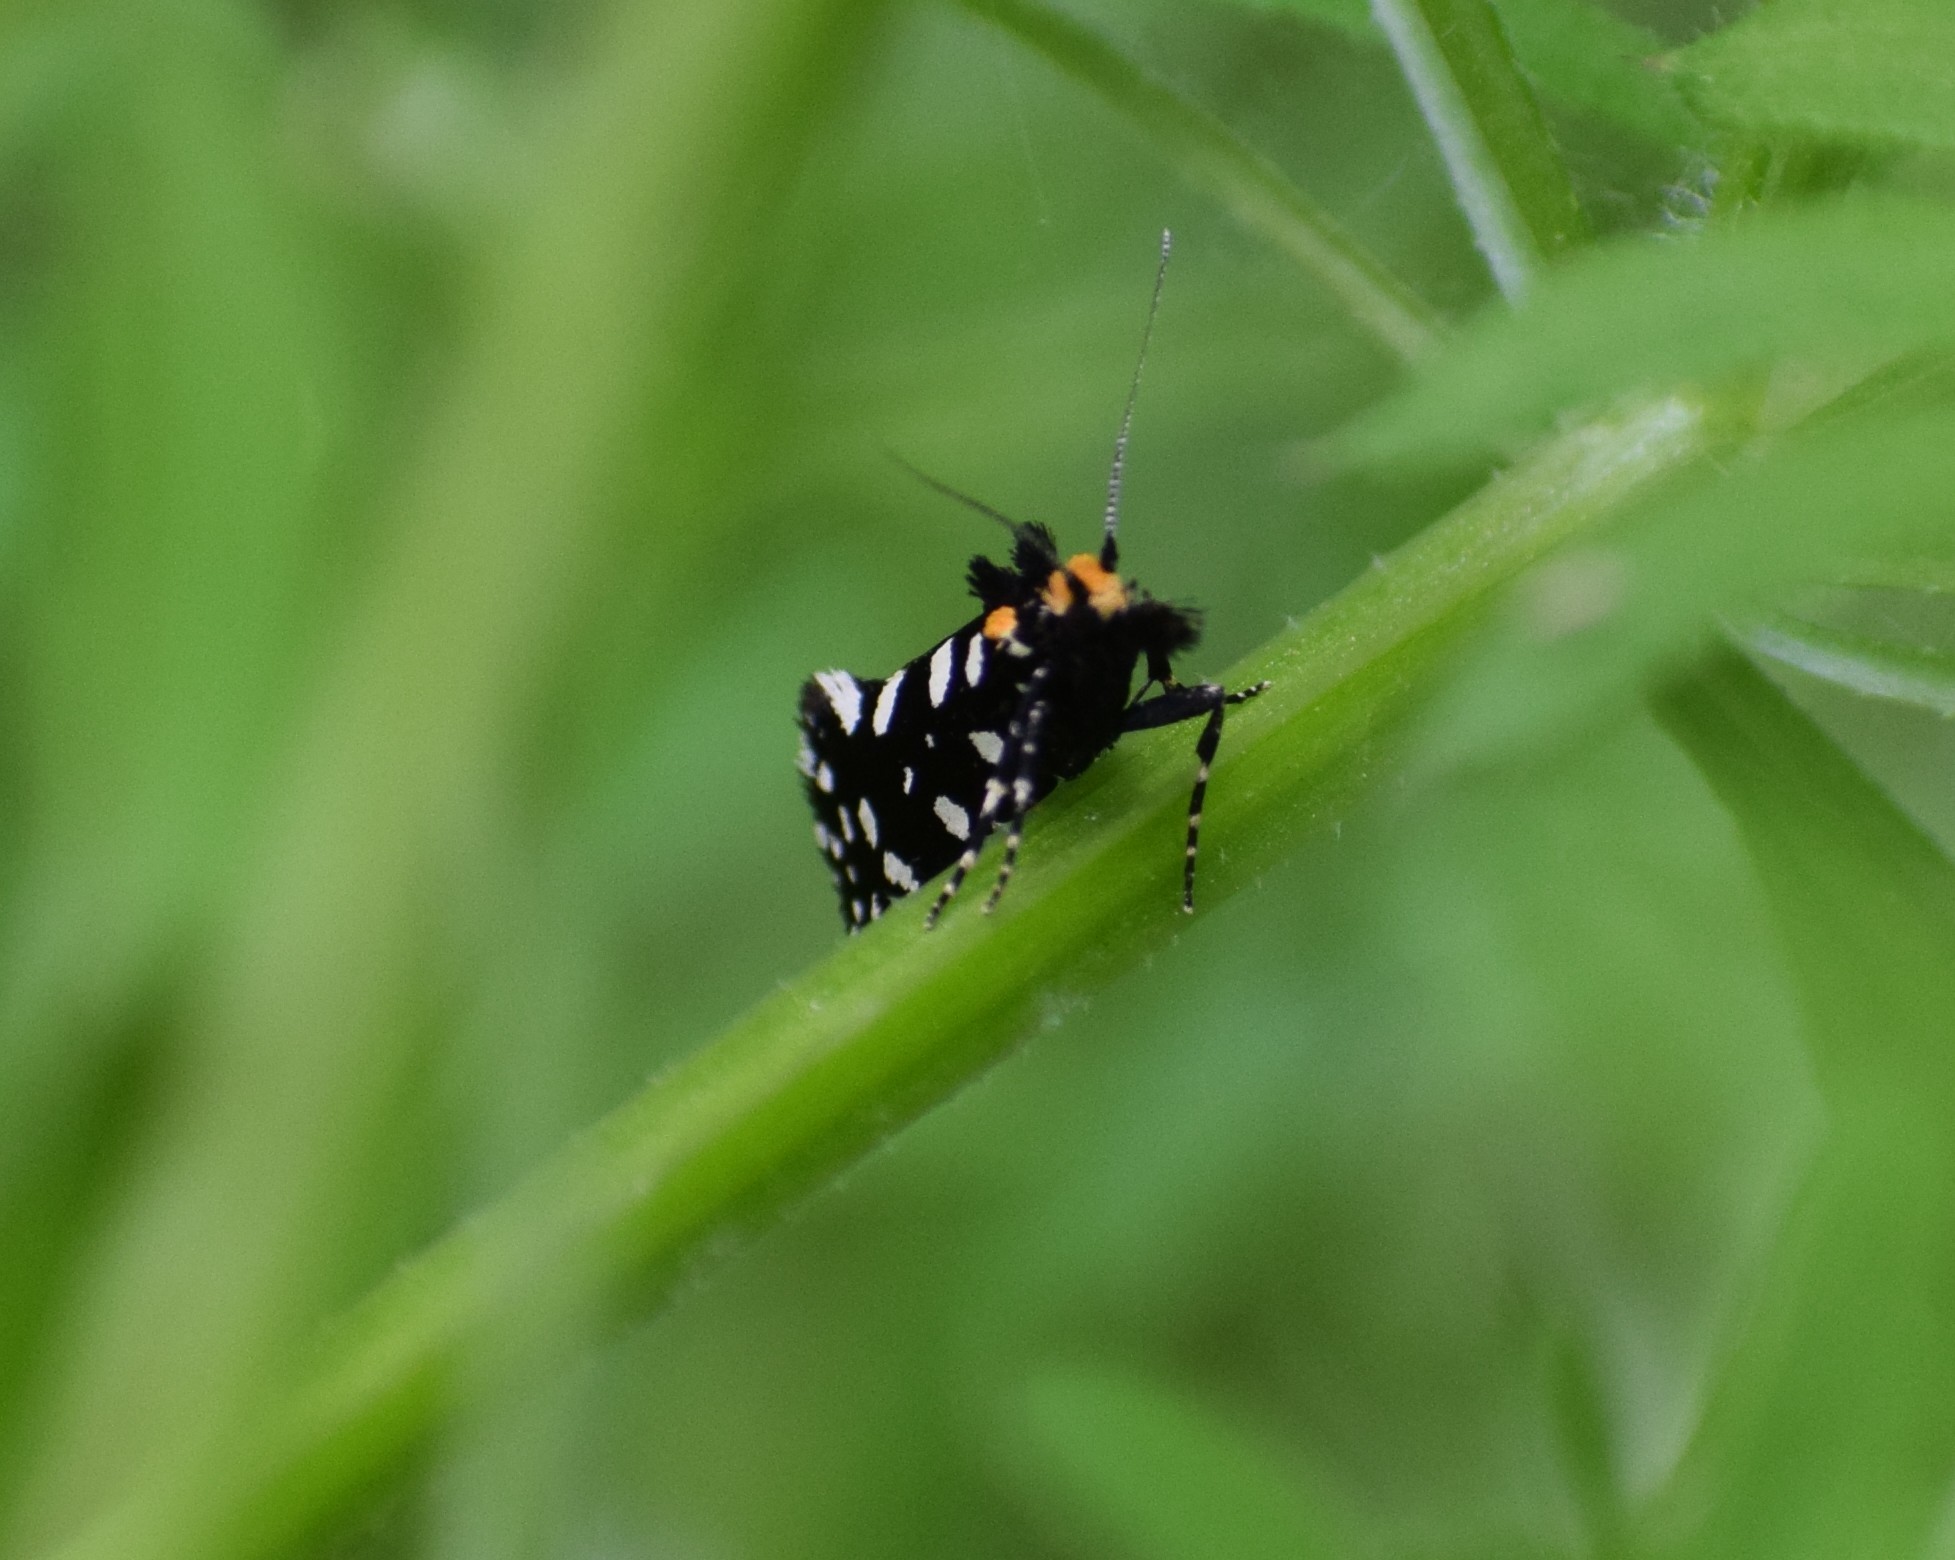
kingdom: Animalia
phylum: Arthropoda
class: Insecta
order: Lepidoptera
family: Tineidae
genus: Euplocamus
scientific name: Euplocamus anthracinalis
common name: Black clothes
